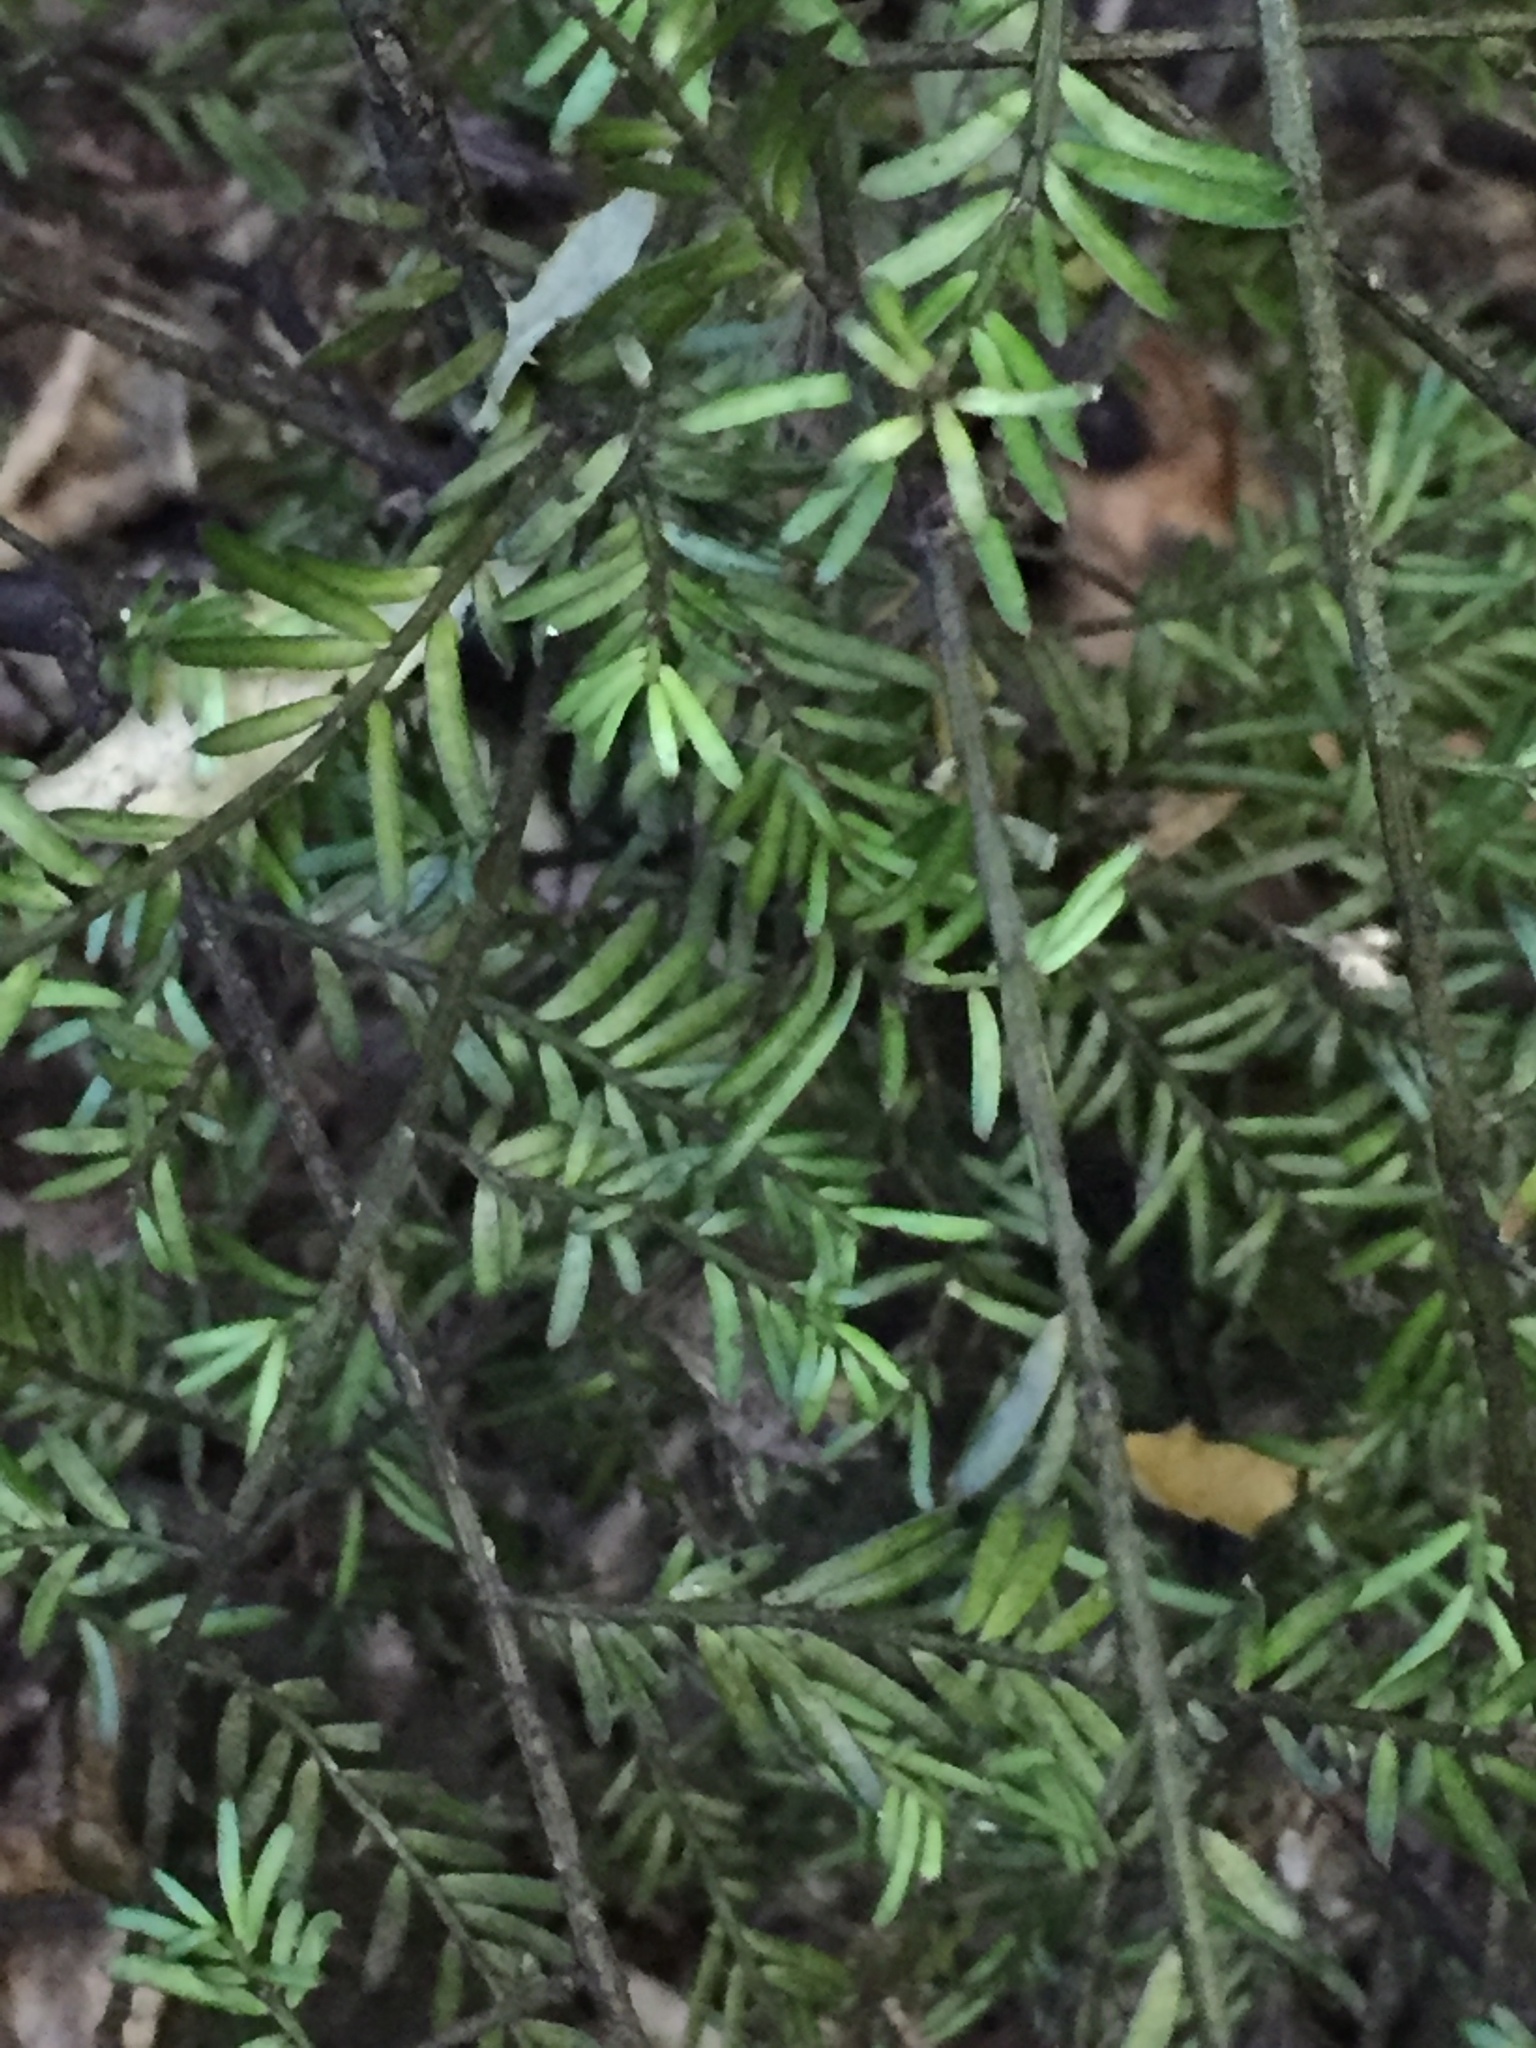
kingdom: Plantae
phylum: Tracheophyta
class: Pinopsida
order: Pinales
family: Podocarpaceae
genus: Prumnopitys
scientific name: Prumnopitys taxifolia
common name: Matai
